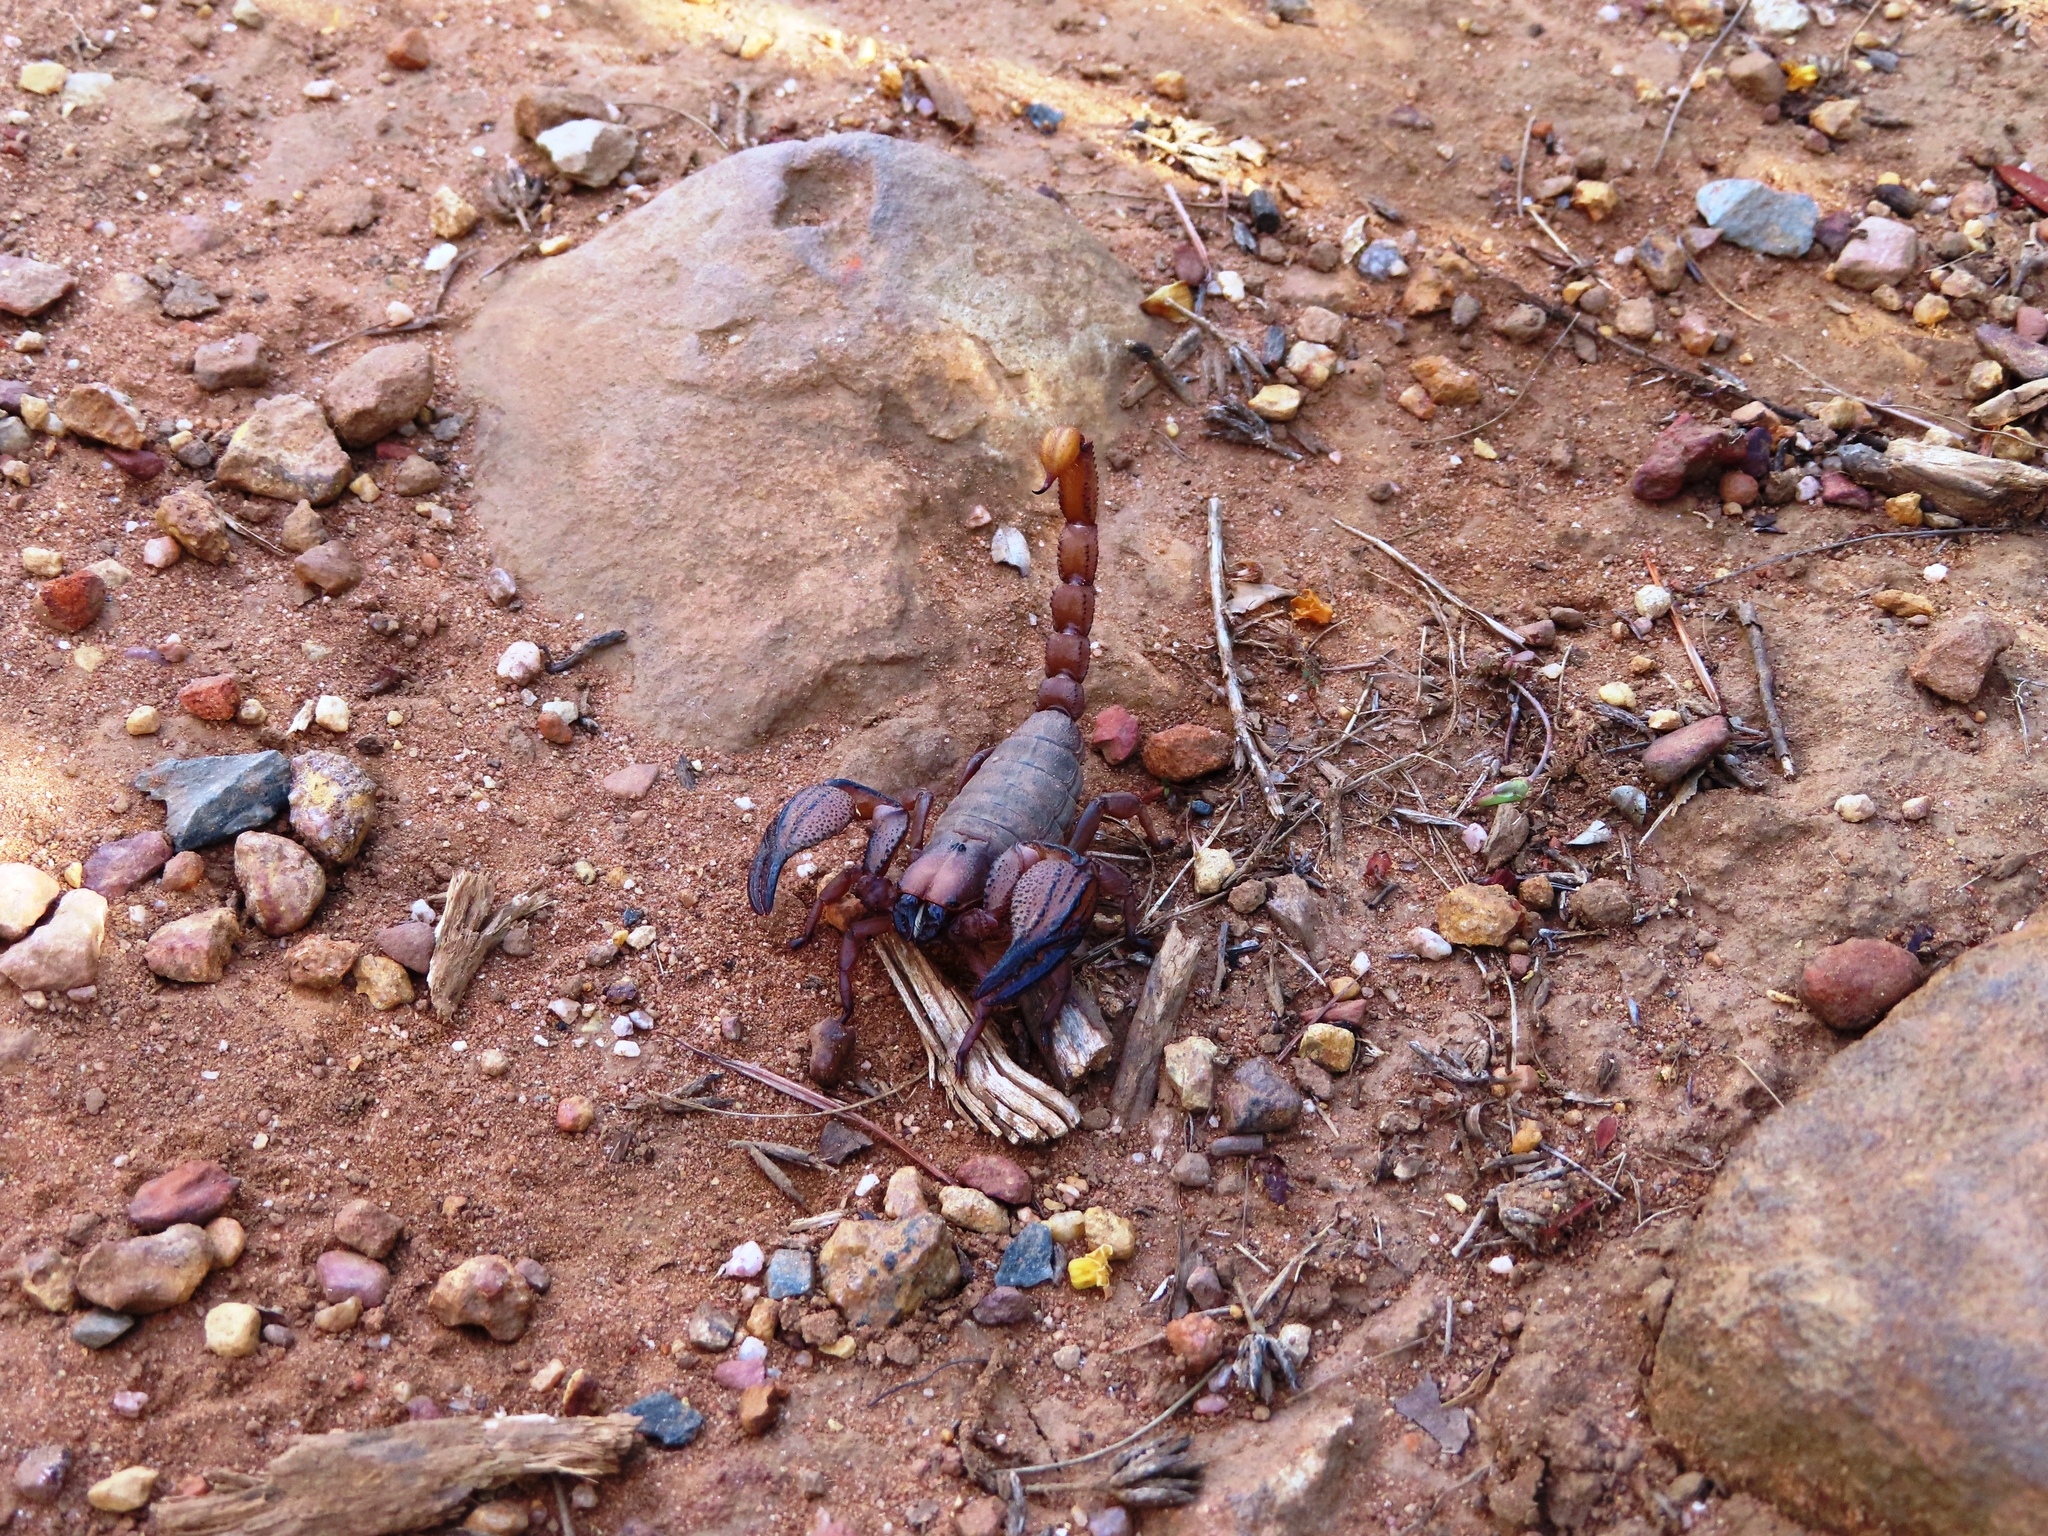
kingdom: Animalia
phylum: Arthropoda
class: Arachnida
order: Scorpiones
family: Scorpionidae
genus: Opistophthalmus
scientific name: Opistophthalmus macer
